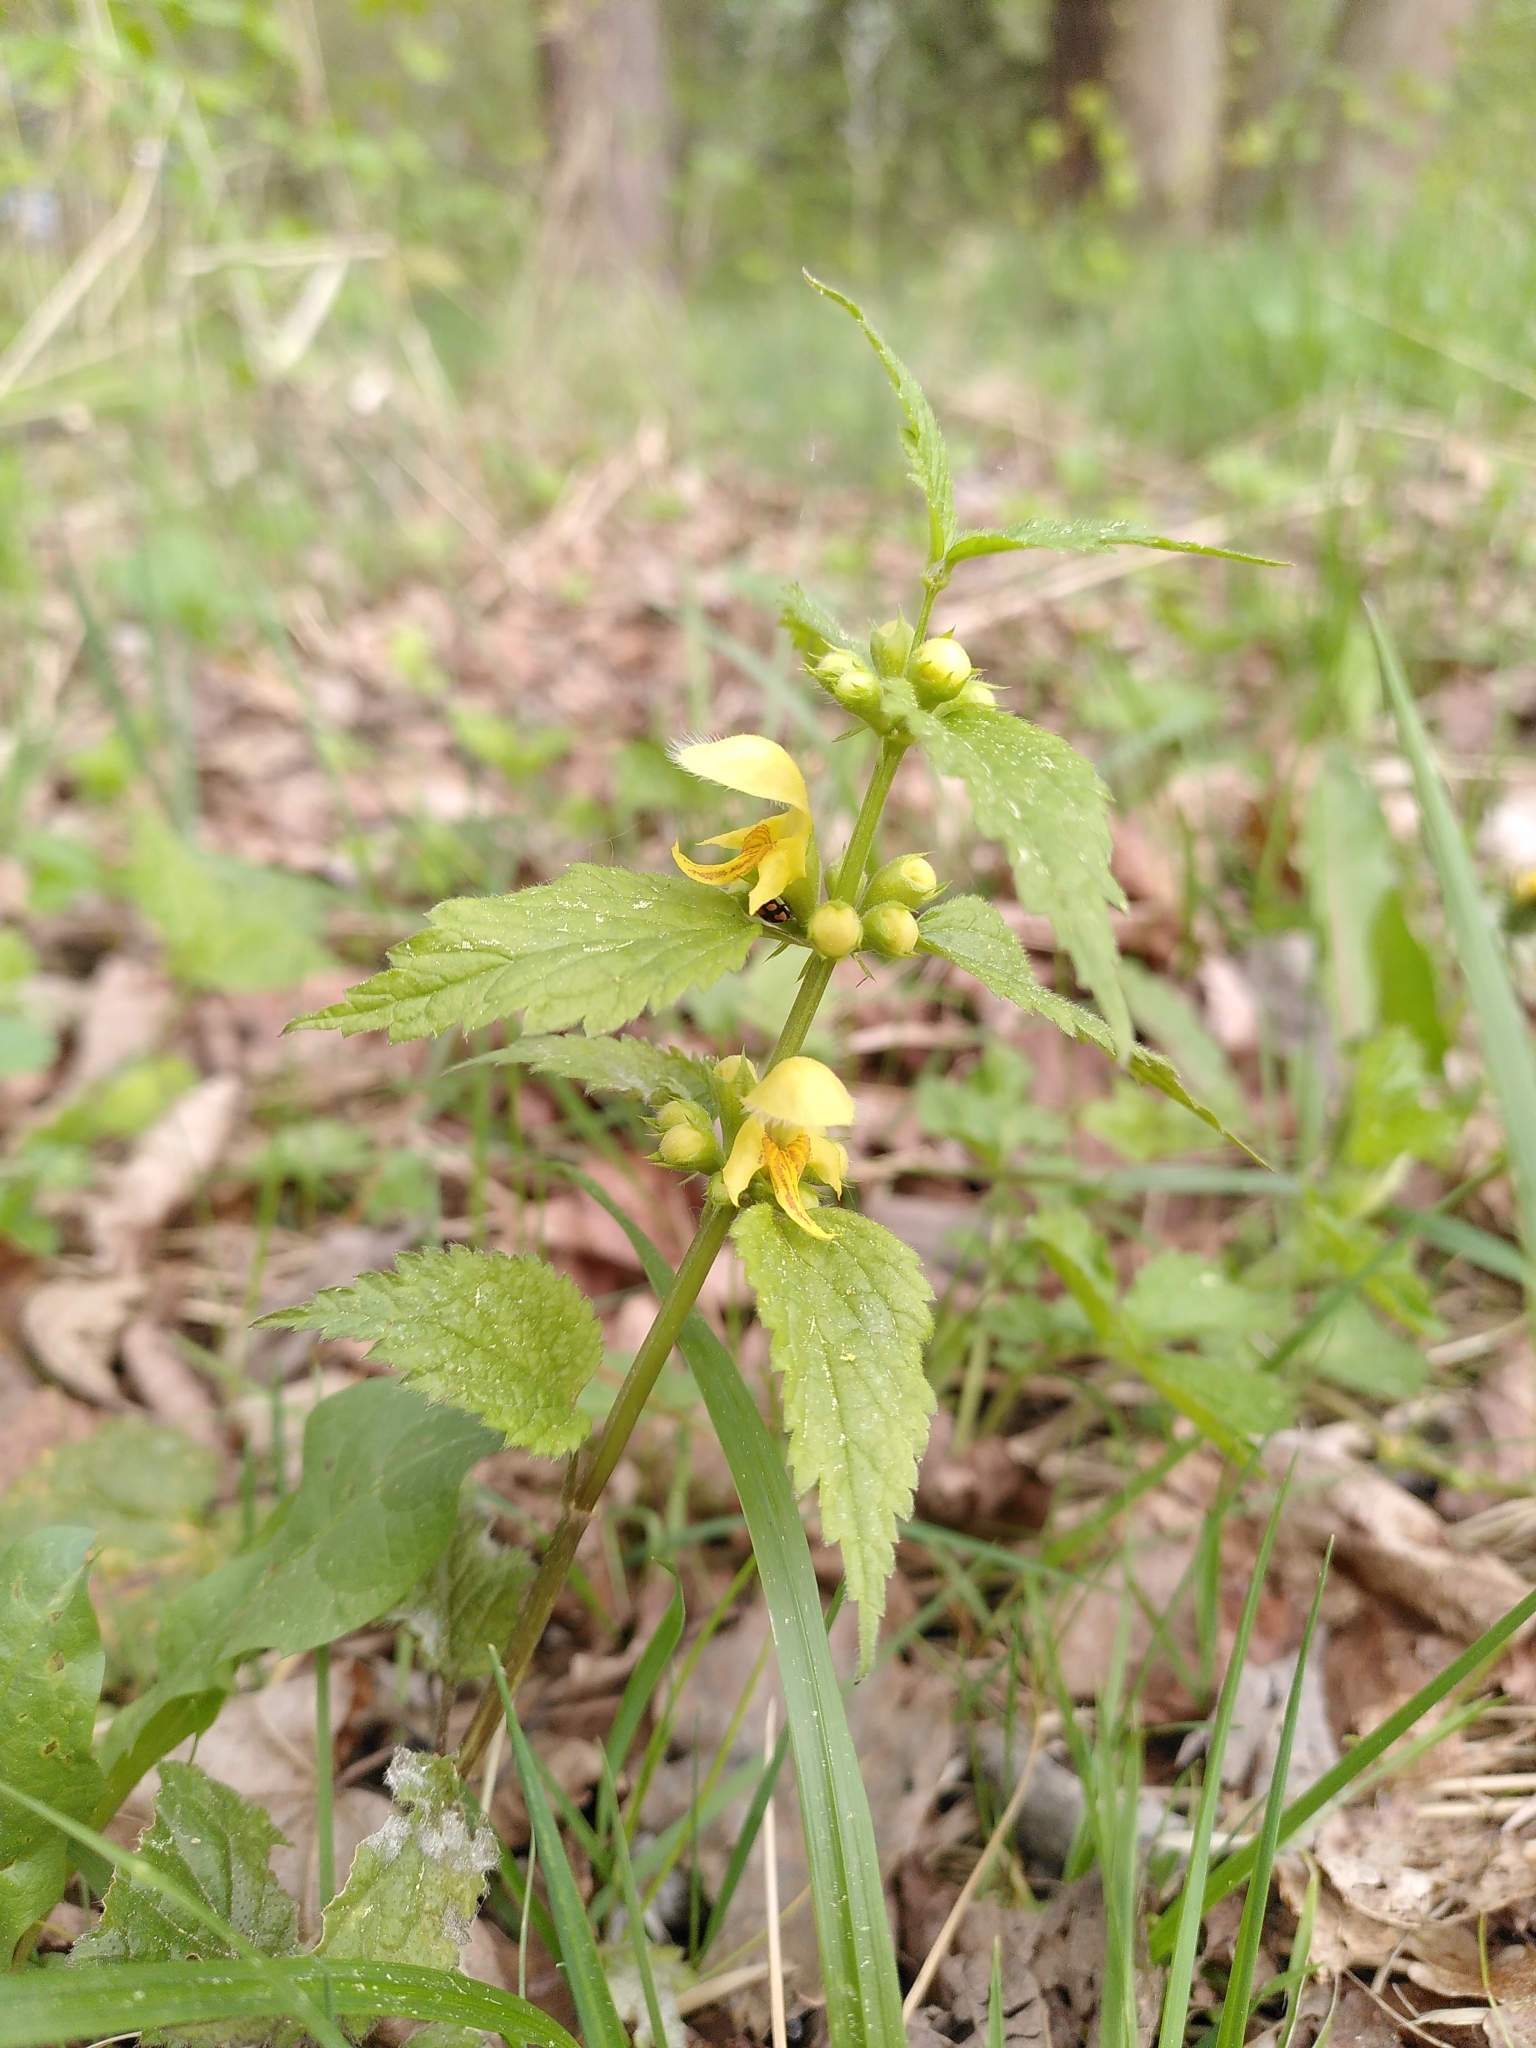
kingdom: Plantae
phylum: Tracheophyta
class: Magnoliopsida
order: Lamiales
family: Lamiaceae
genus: Lamium
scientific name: Lamium galeobdolon
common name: Yellow archangel
